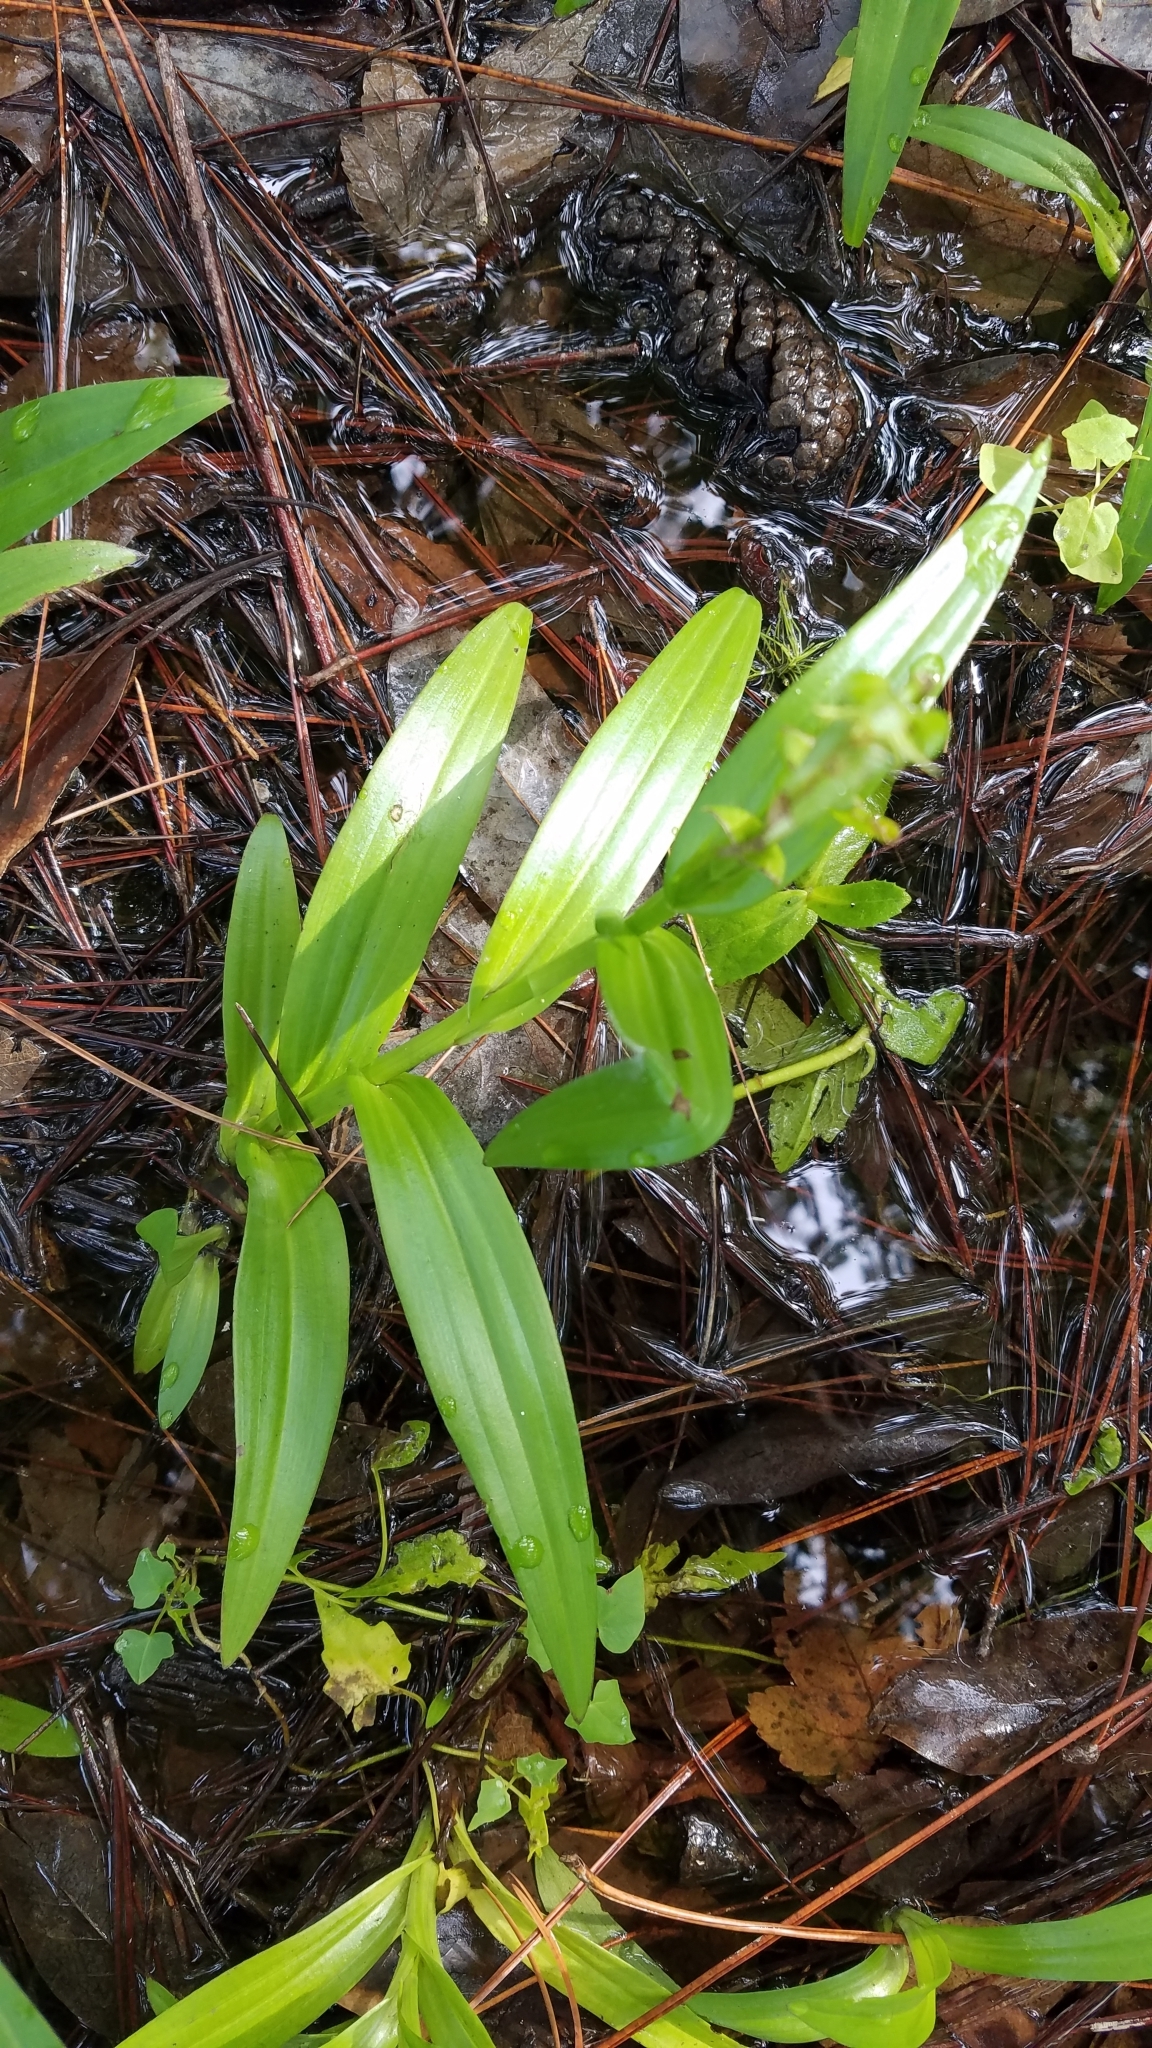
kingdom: Plantae
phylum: Tracheophyta
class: Liliopsida
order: Asparagales
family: Orchidaceae
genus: Habenaria
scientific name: Habenaria repens
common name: Water orchid
